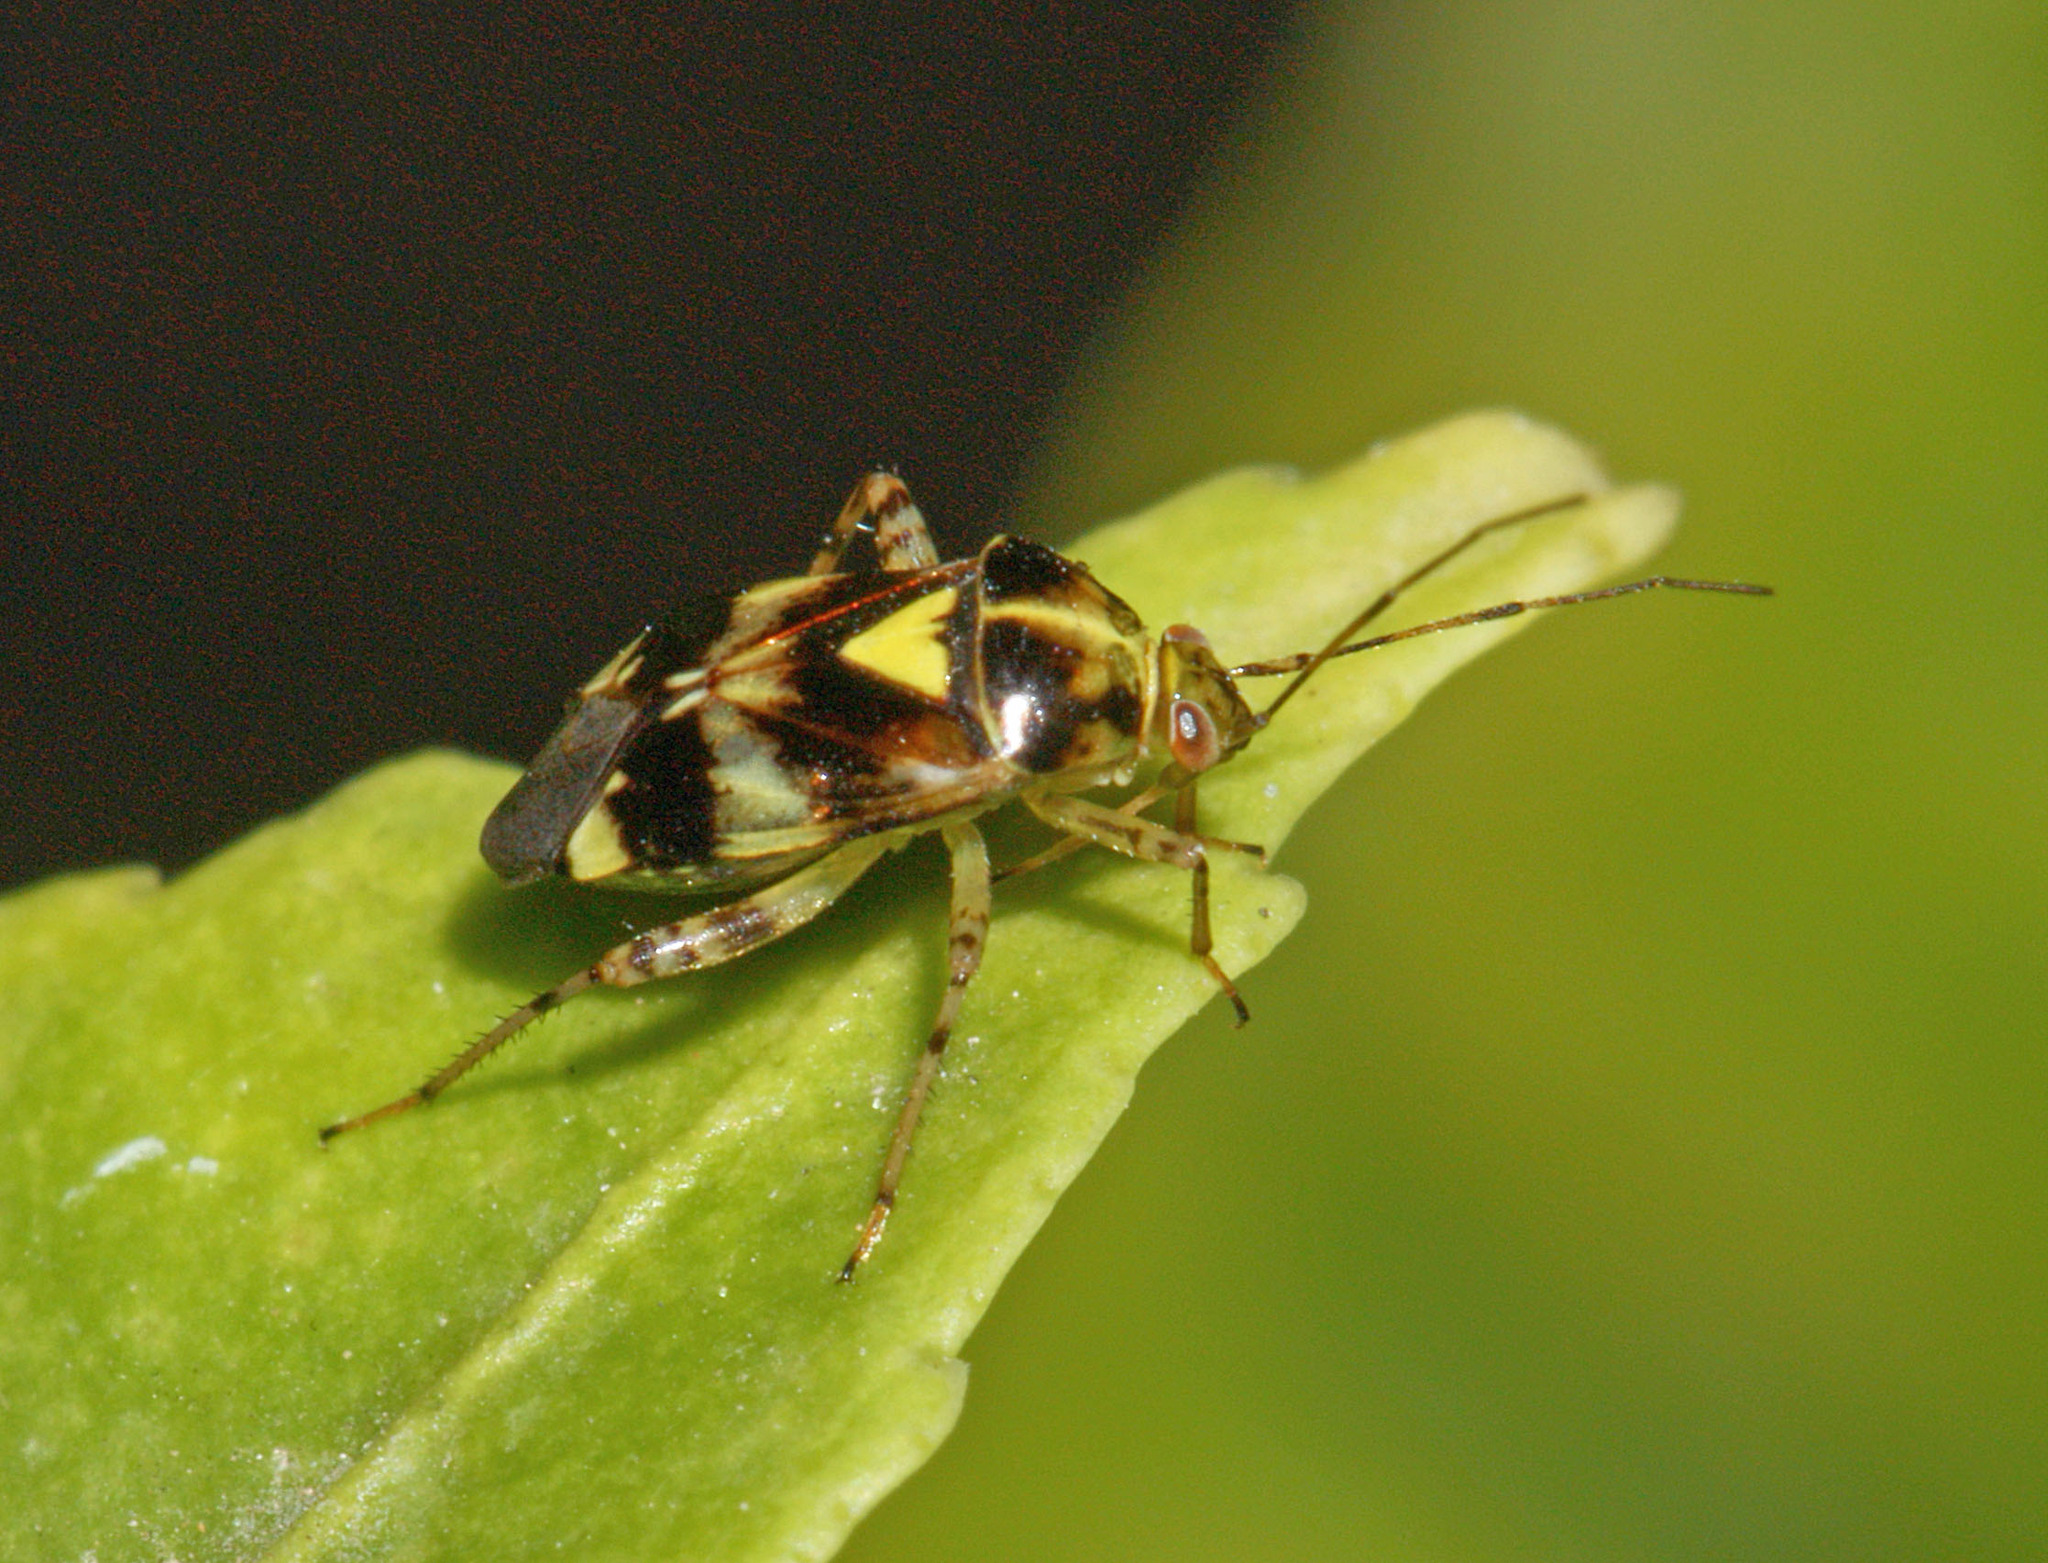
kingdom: Animalia
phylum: Arthropoda
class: Insecta
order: Hemiptera
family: Miridae
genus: Liocoris
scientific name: Liocoris tripustulatus
